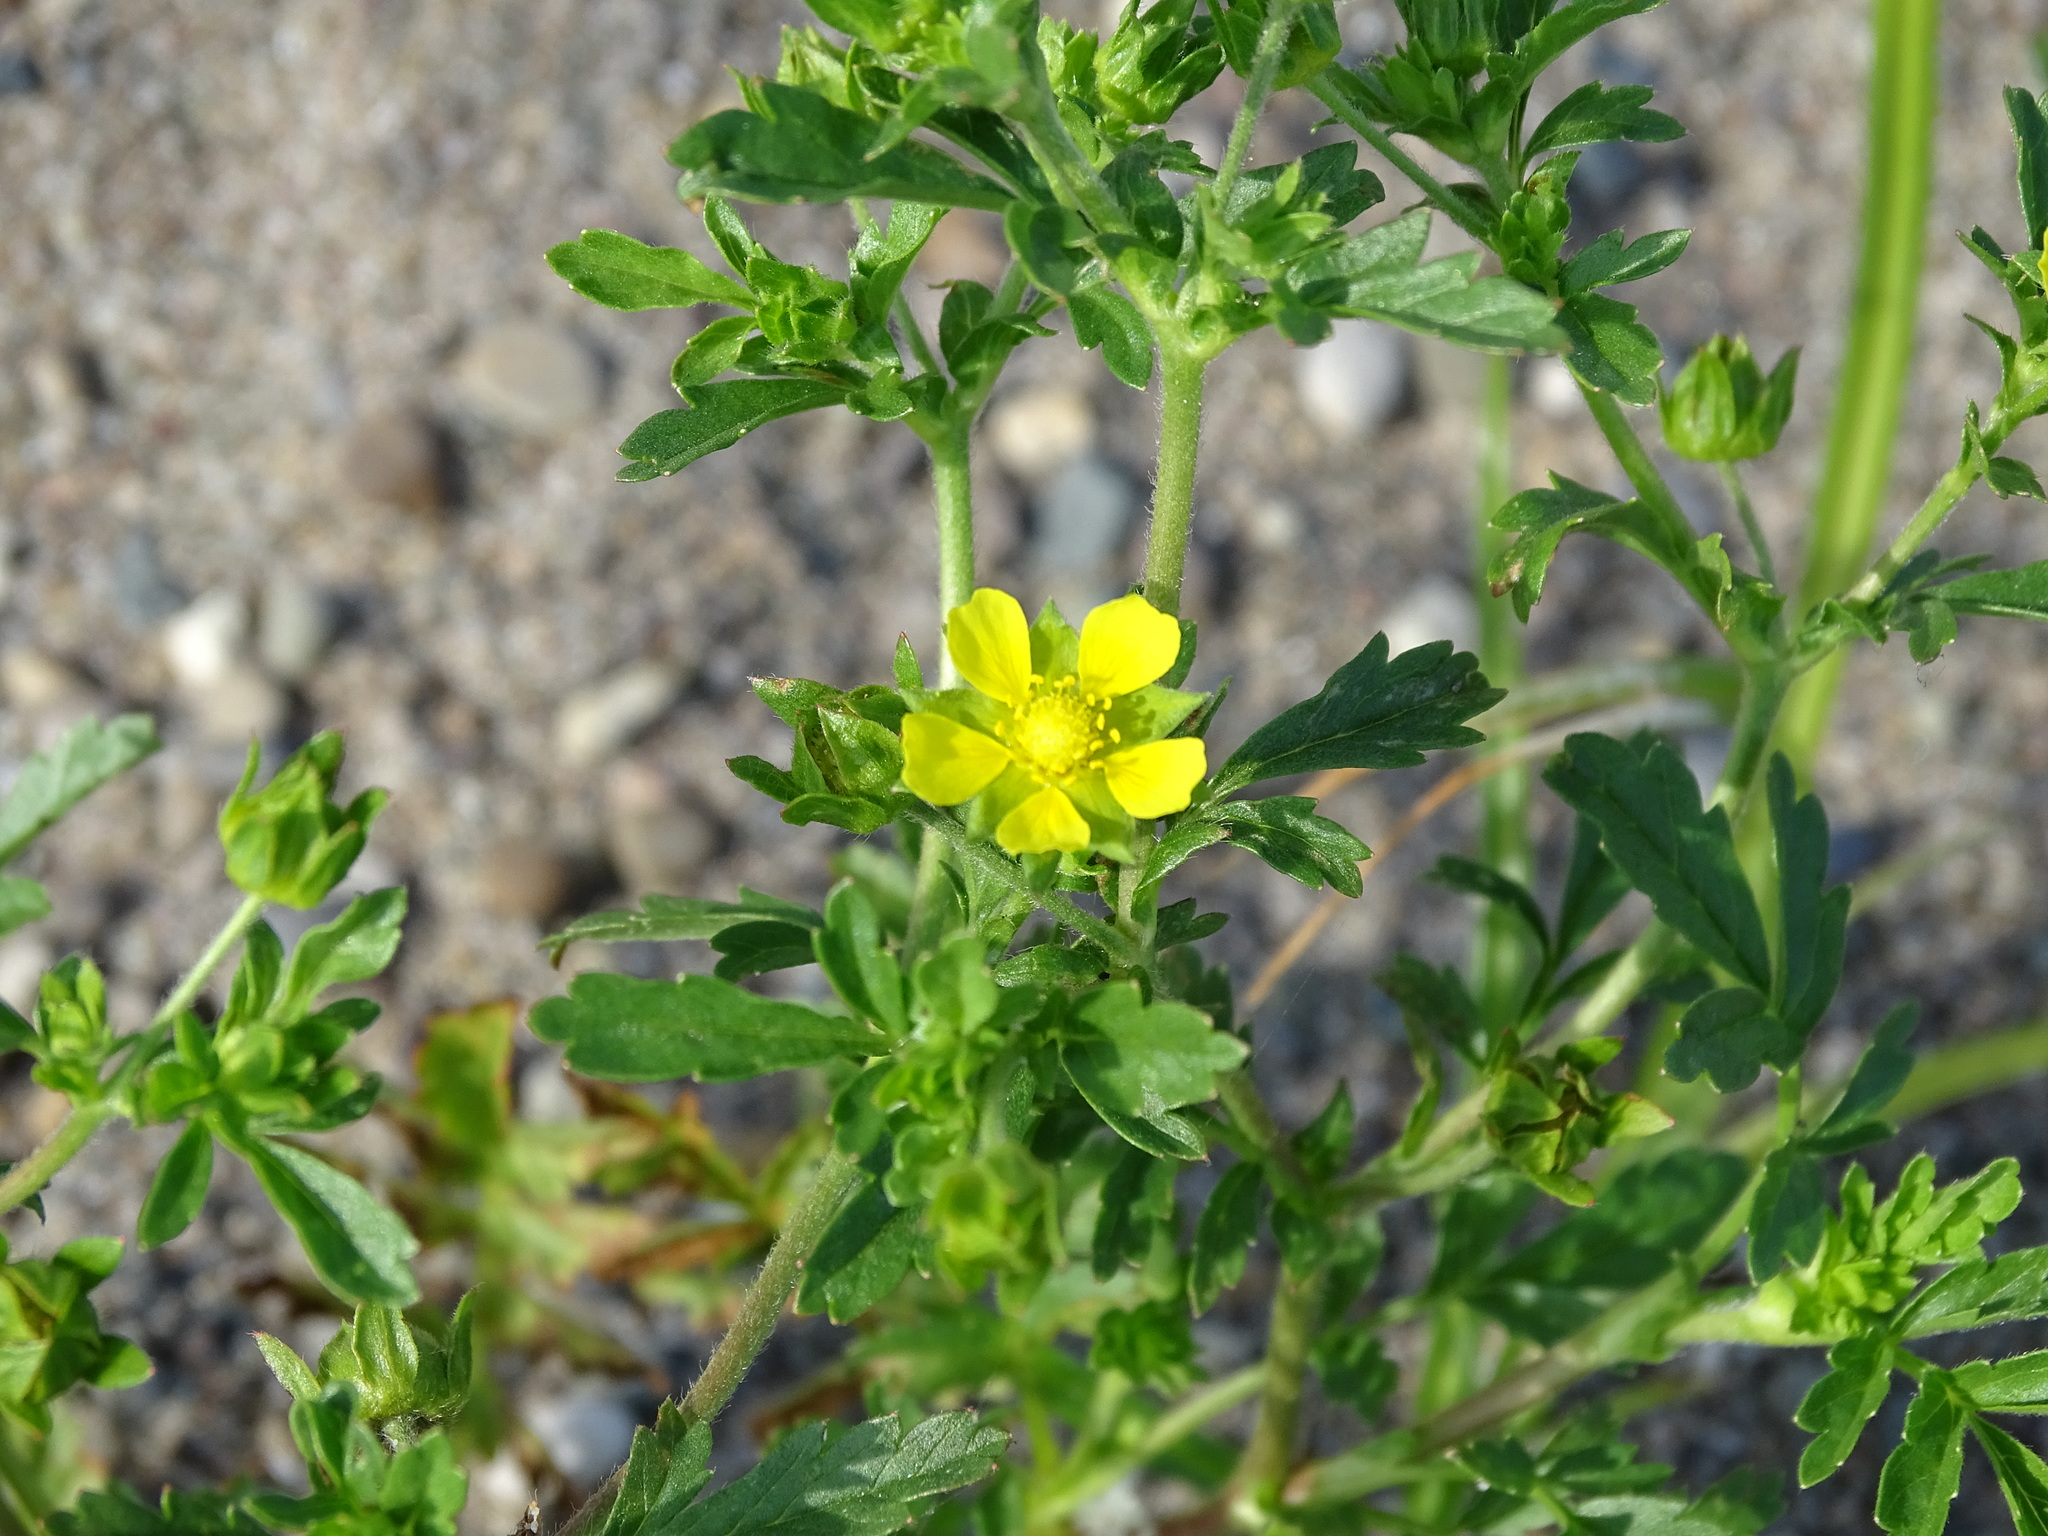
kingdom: Plantae
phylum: Tracheophyta
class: Magnoliopsida
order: Rosales
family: Rosaceae
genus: Potentilla
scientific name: Potentilla supina
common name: Prostrate cinquefoil
